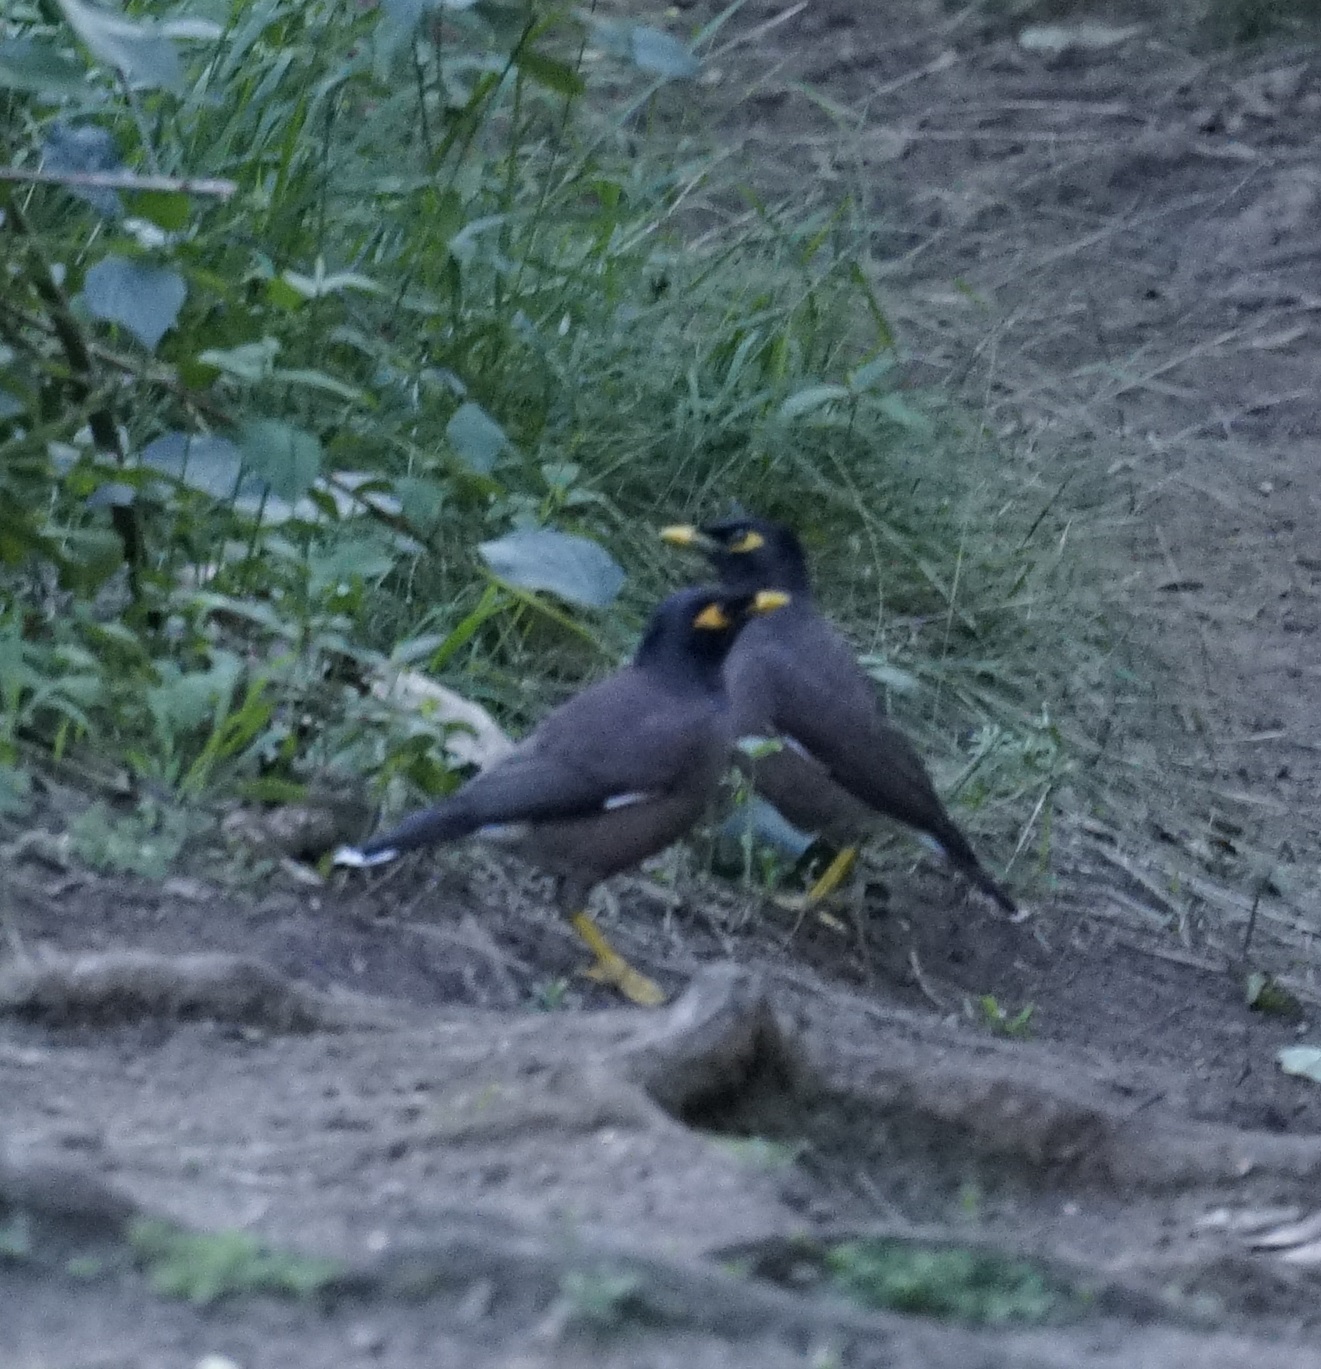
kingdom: Animalia
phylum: Chordata
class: Aves
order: Passeriformes
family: Sturnidae
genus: Acridotheres
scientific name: Acridotheres tristis
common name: Common myna
